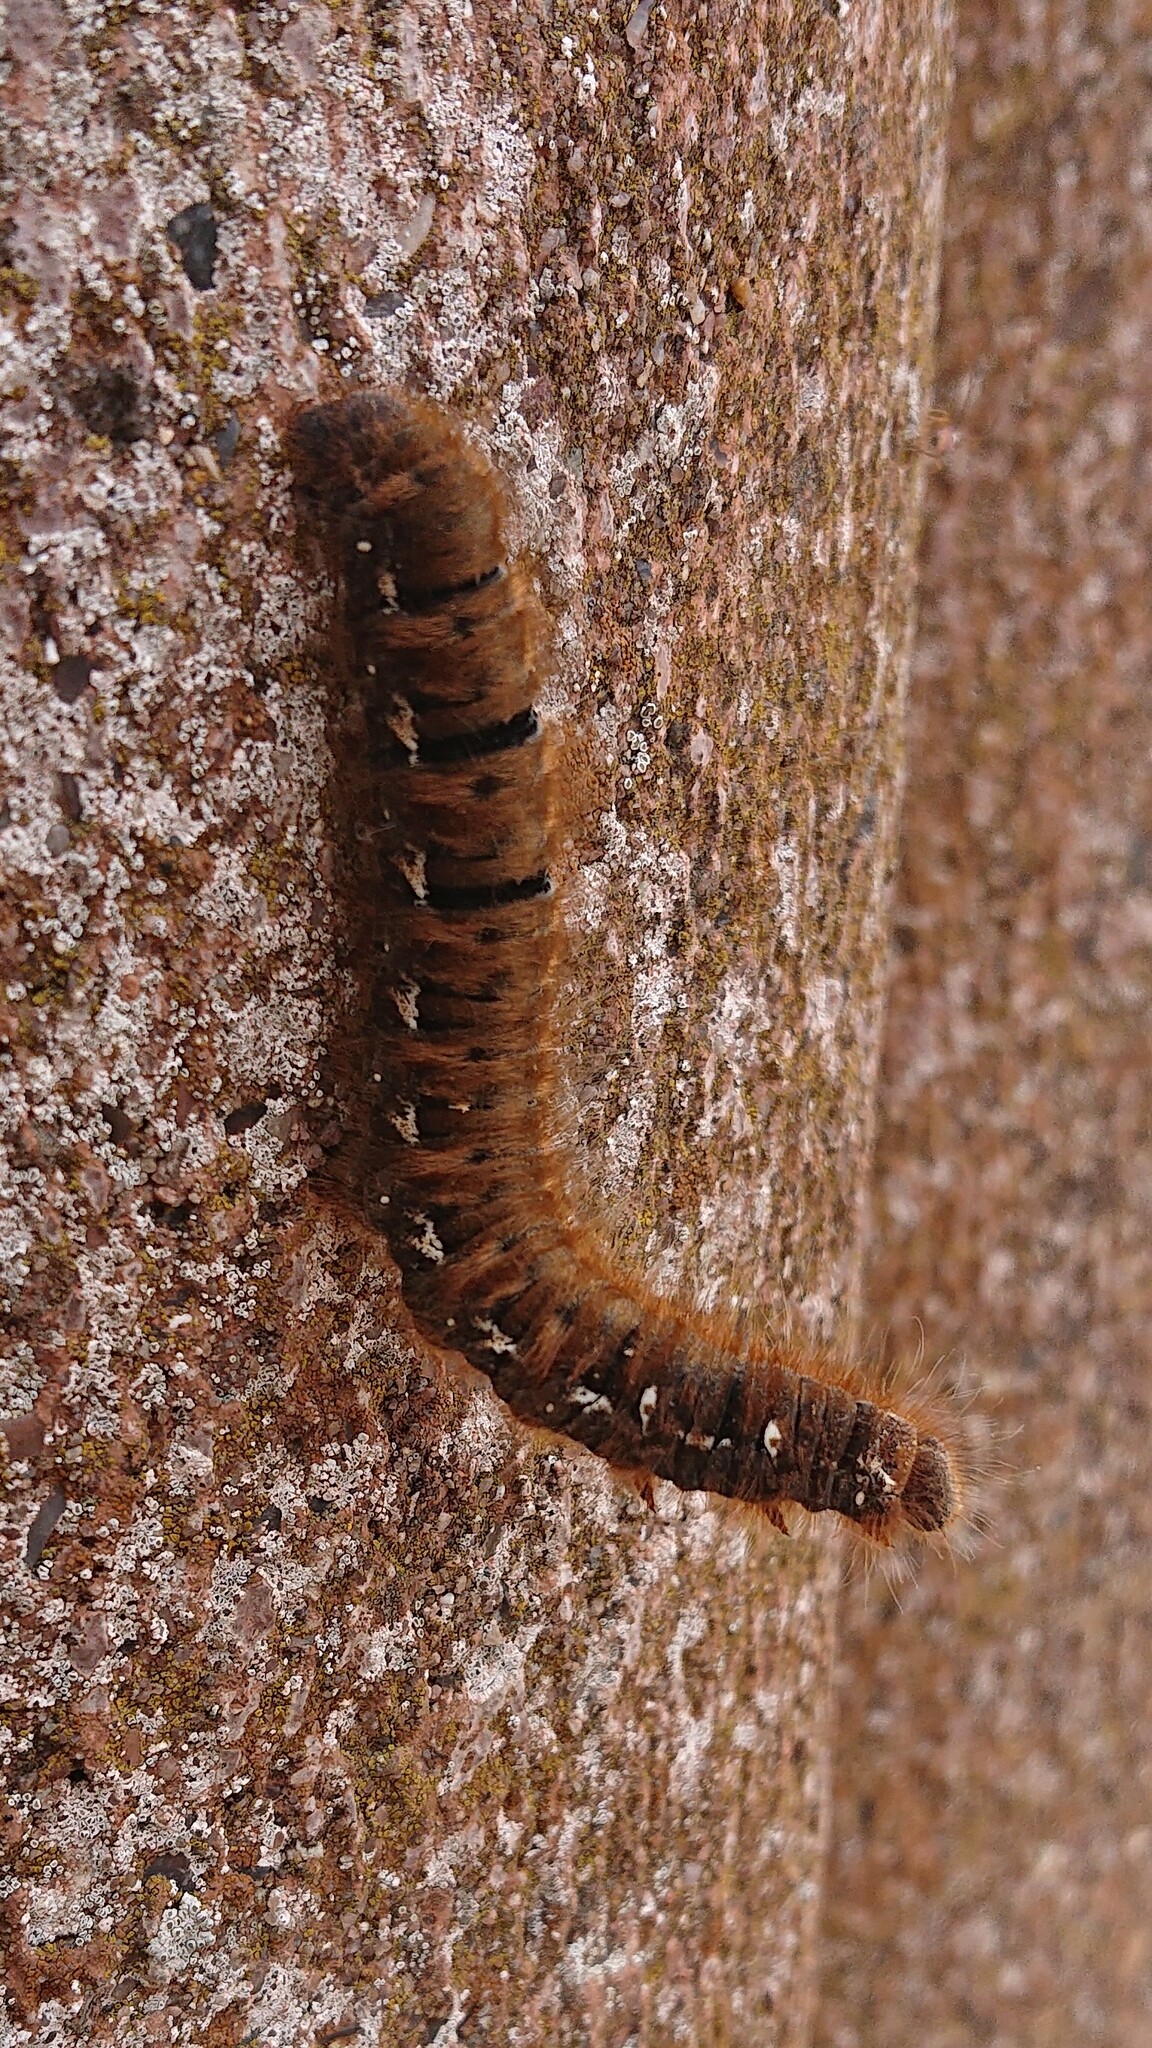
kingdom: Animalia
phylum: Arthropoda
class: Insecta
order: Lepidoptera
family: Lasiocampidae
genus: Lasiocampa
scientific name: Lasiocampa quercus
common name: Oak eggar
